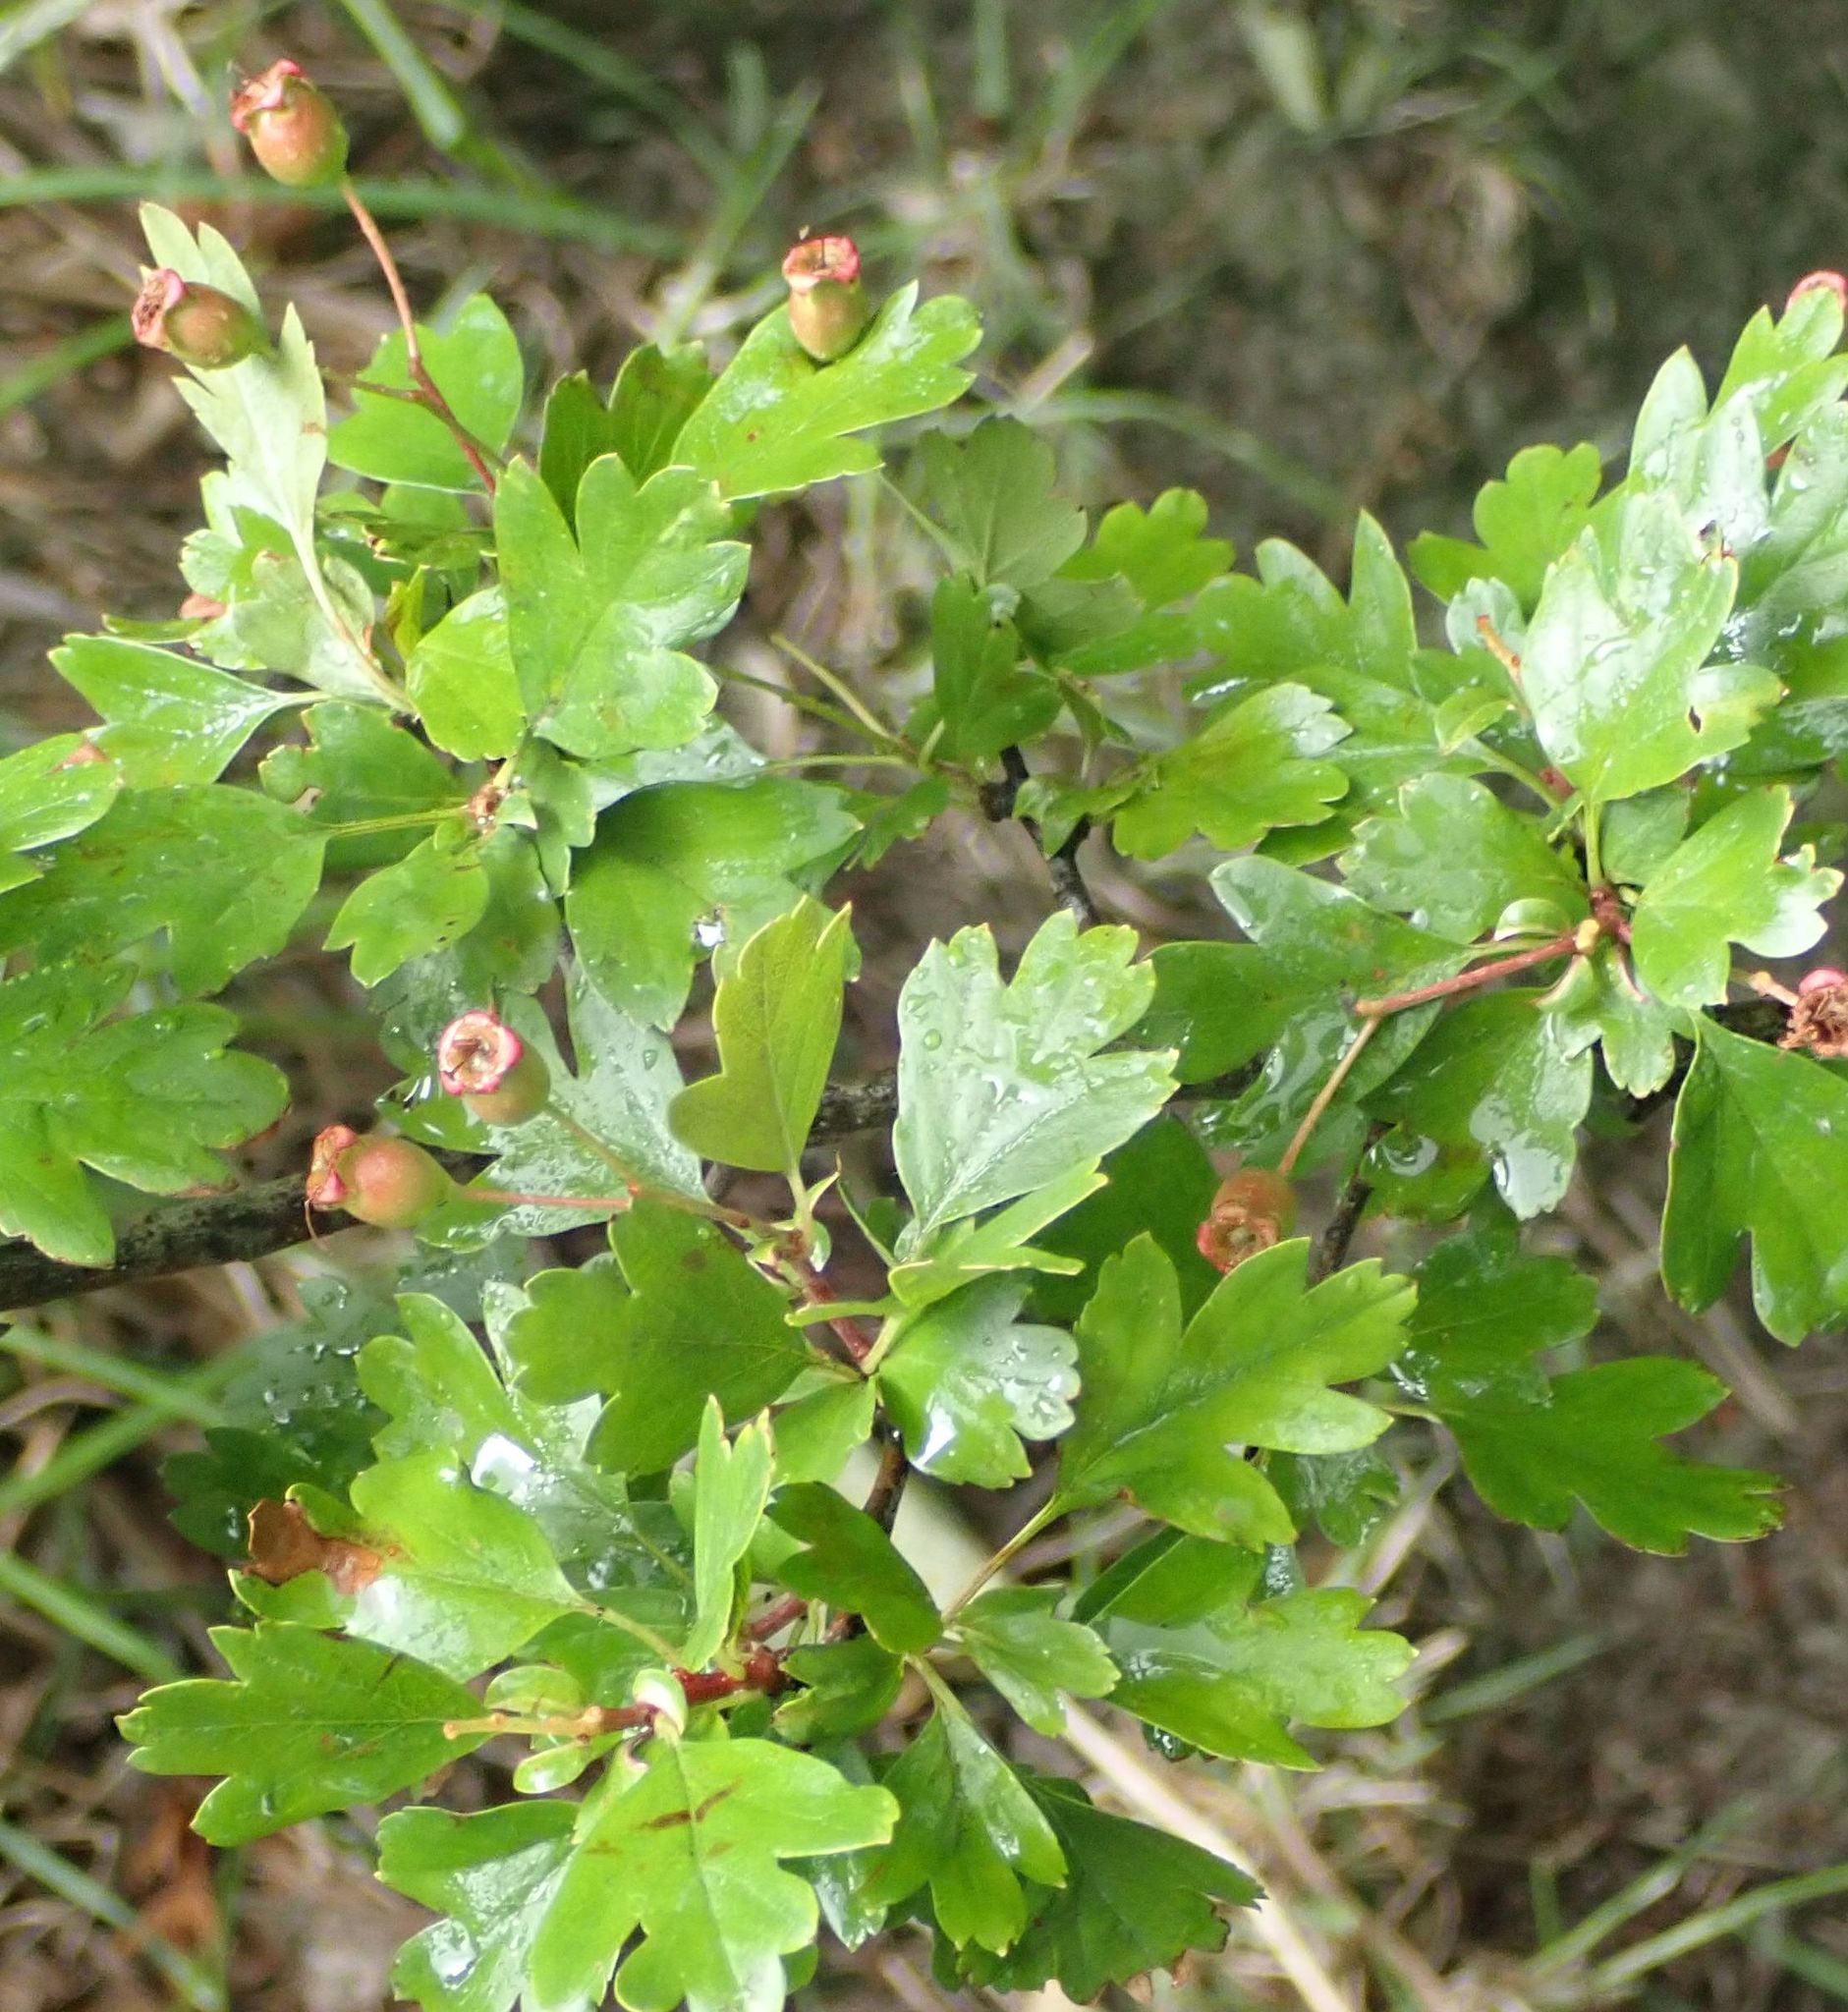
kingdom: Plantae
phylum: Tracheophyta
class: Magnoliopsida
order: Rosales
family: Rosaceae
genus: Crataegus
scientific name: Crataegus monogyna
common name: Hawthorn
